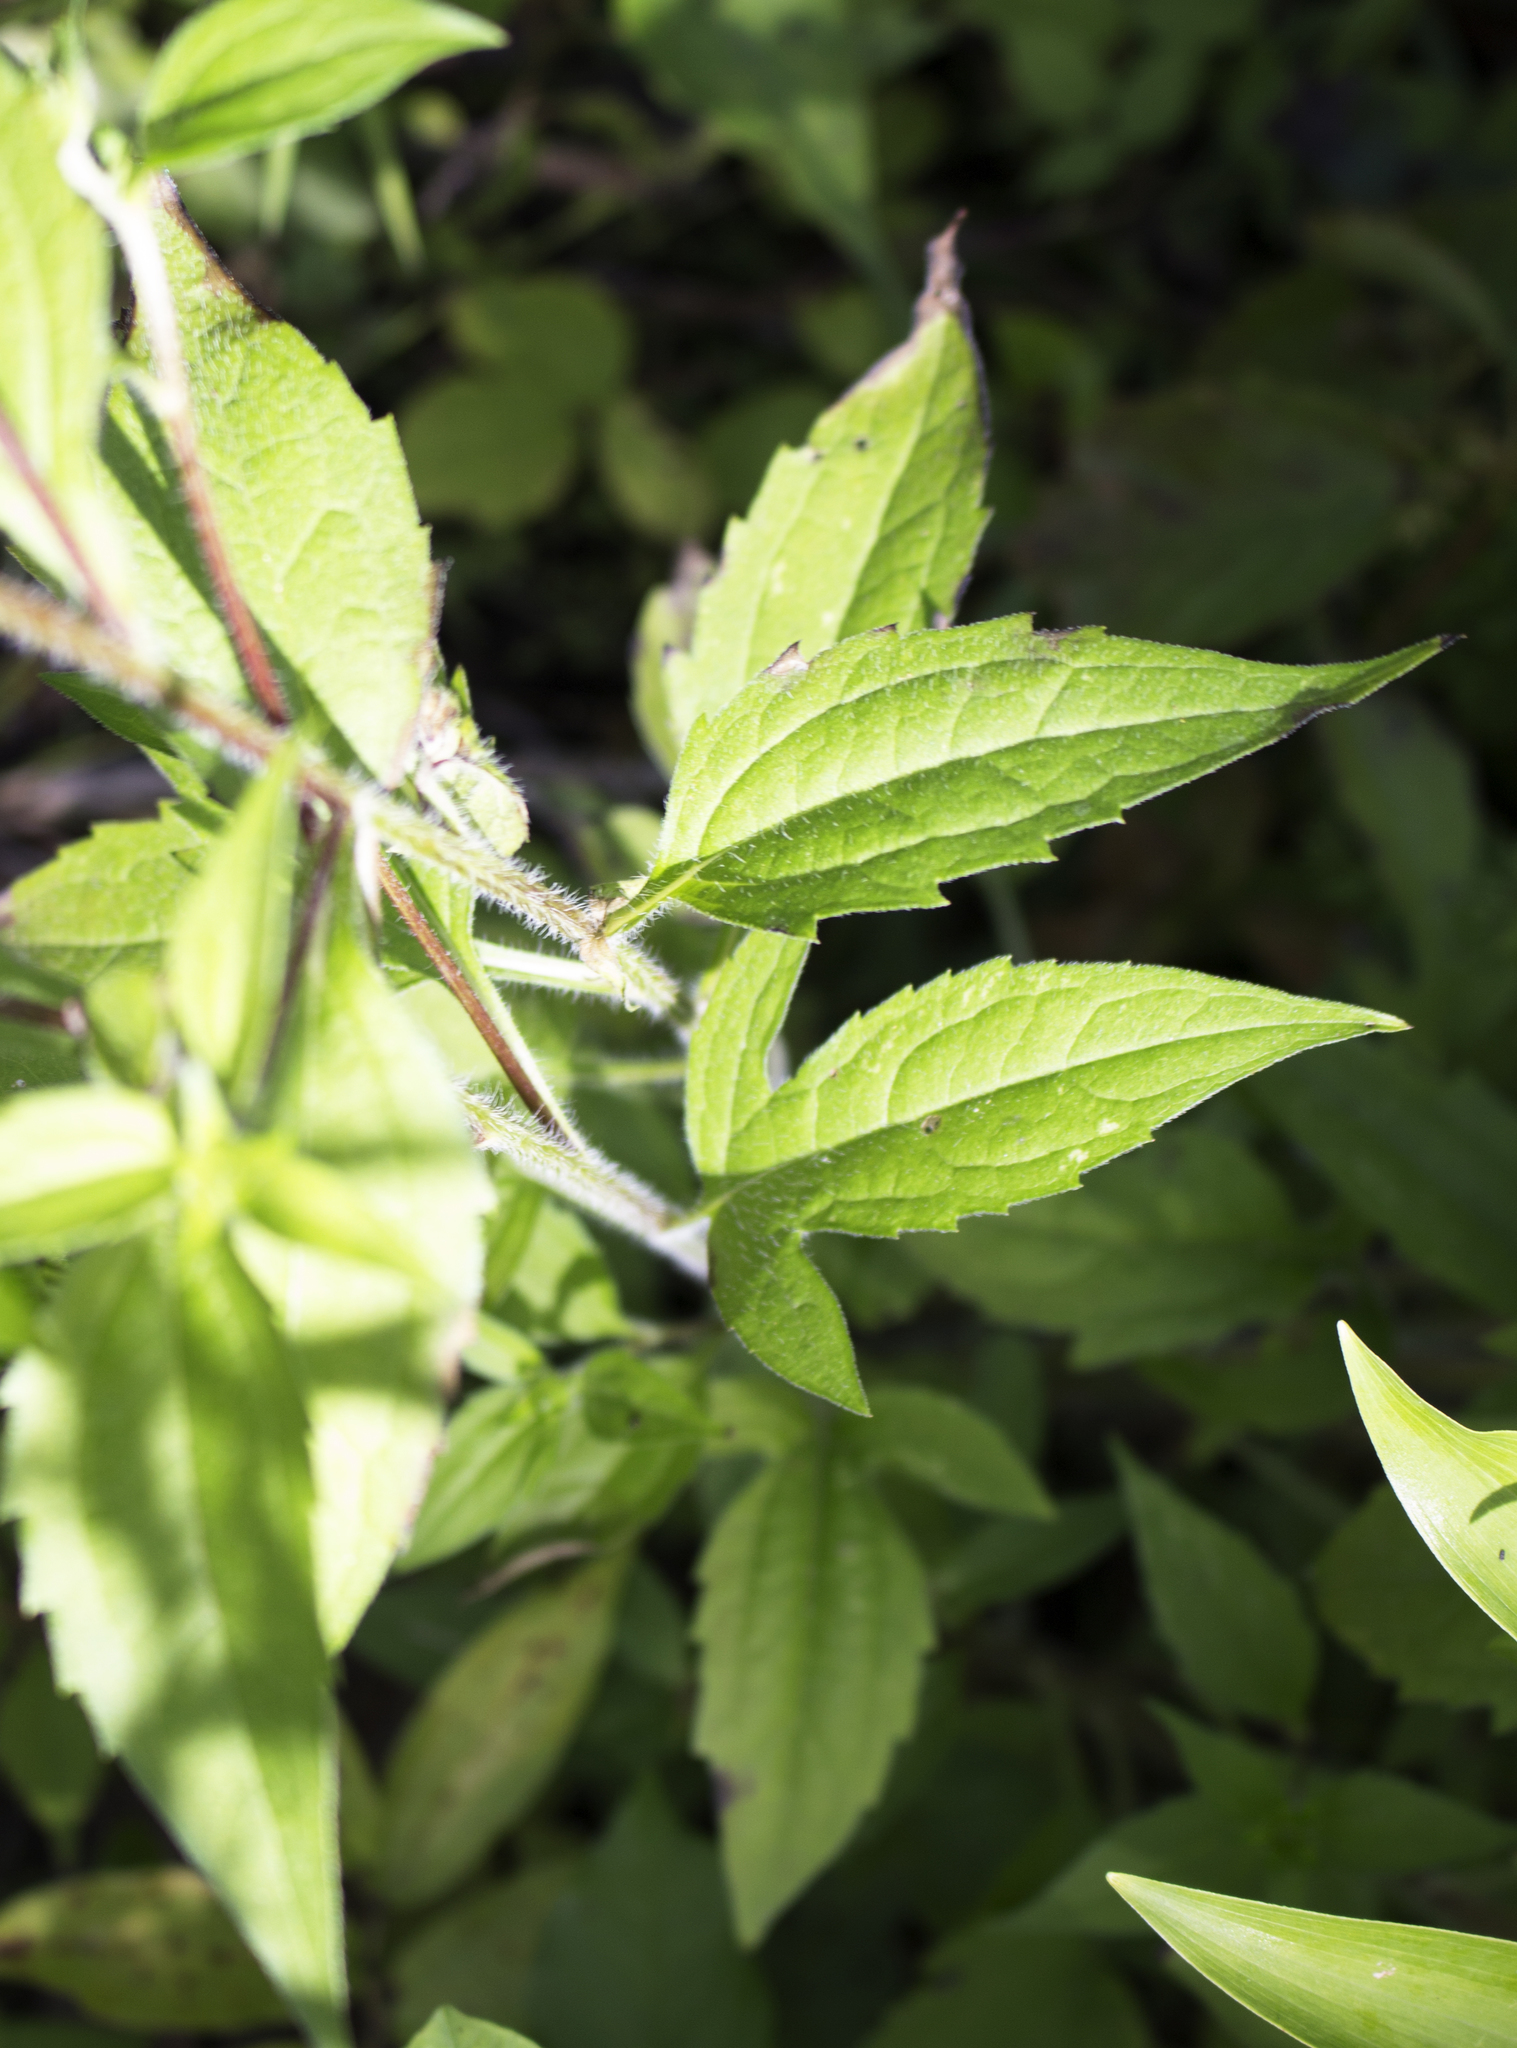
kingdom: Plantae
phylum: Tracheophyta
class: Magnoliopsida
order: Asterales
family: Asteraceae
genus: Rudbeckia
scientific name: Rudbeckia triloba
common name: Thin-leaved coneflower
